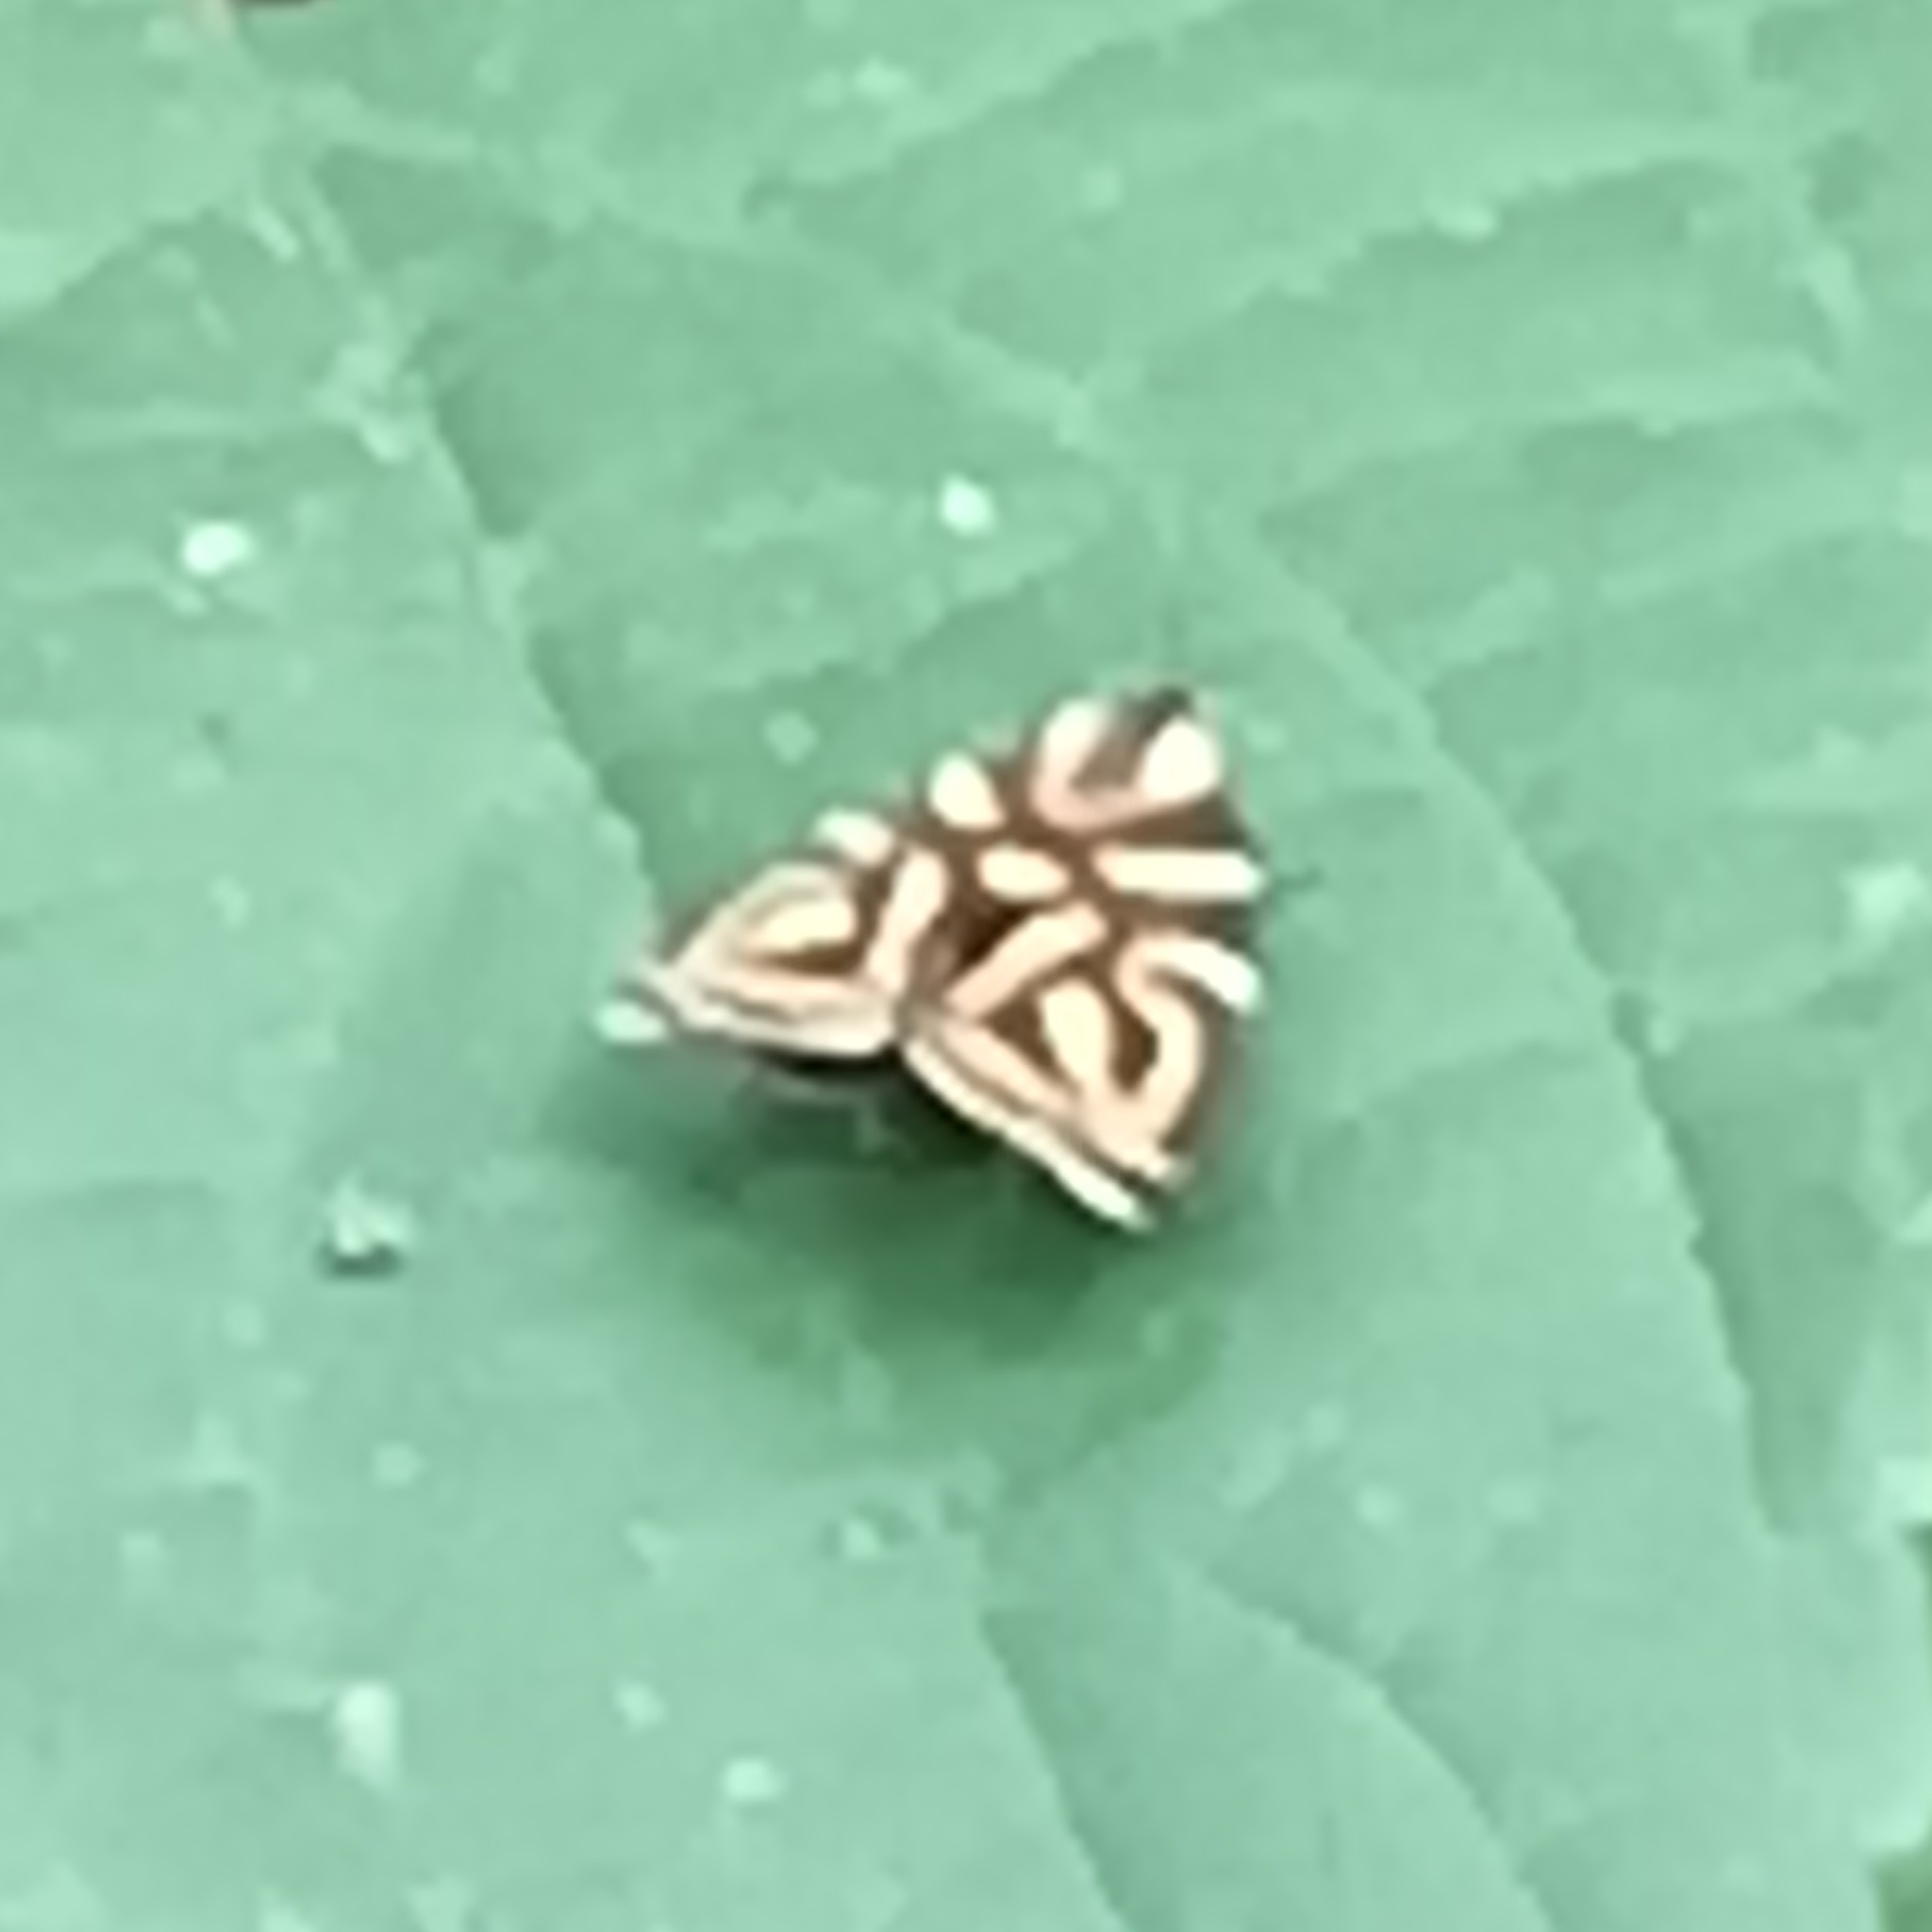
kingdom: Animalia
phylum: Arthropoda
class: Insecta
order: Lepidoptera
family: Choreutidae
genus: Anthophila
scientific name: Anthophila albertiana
